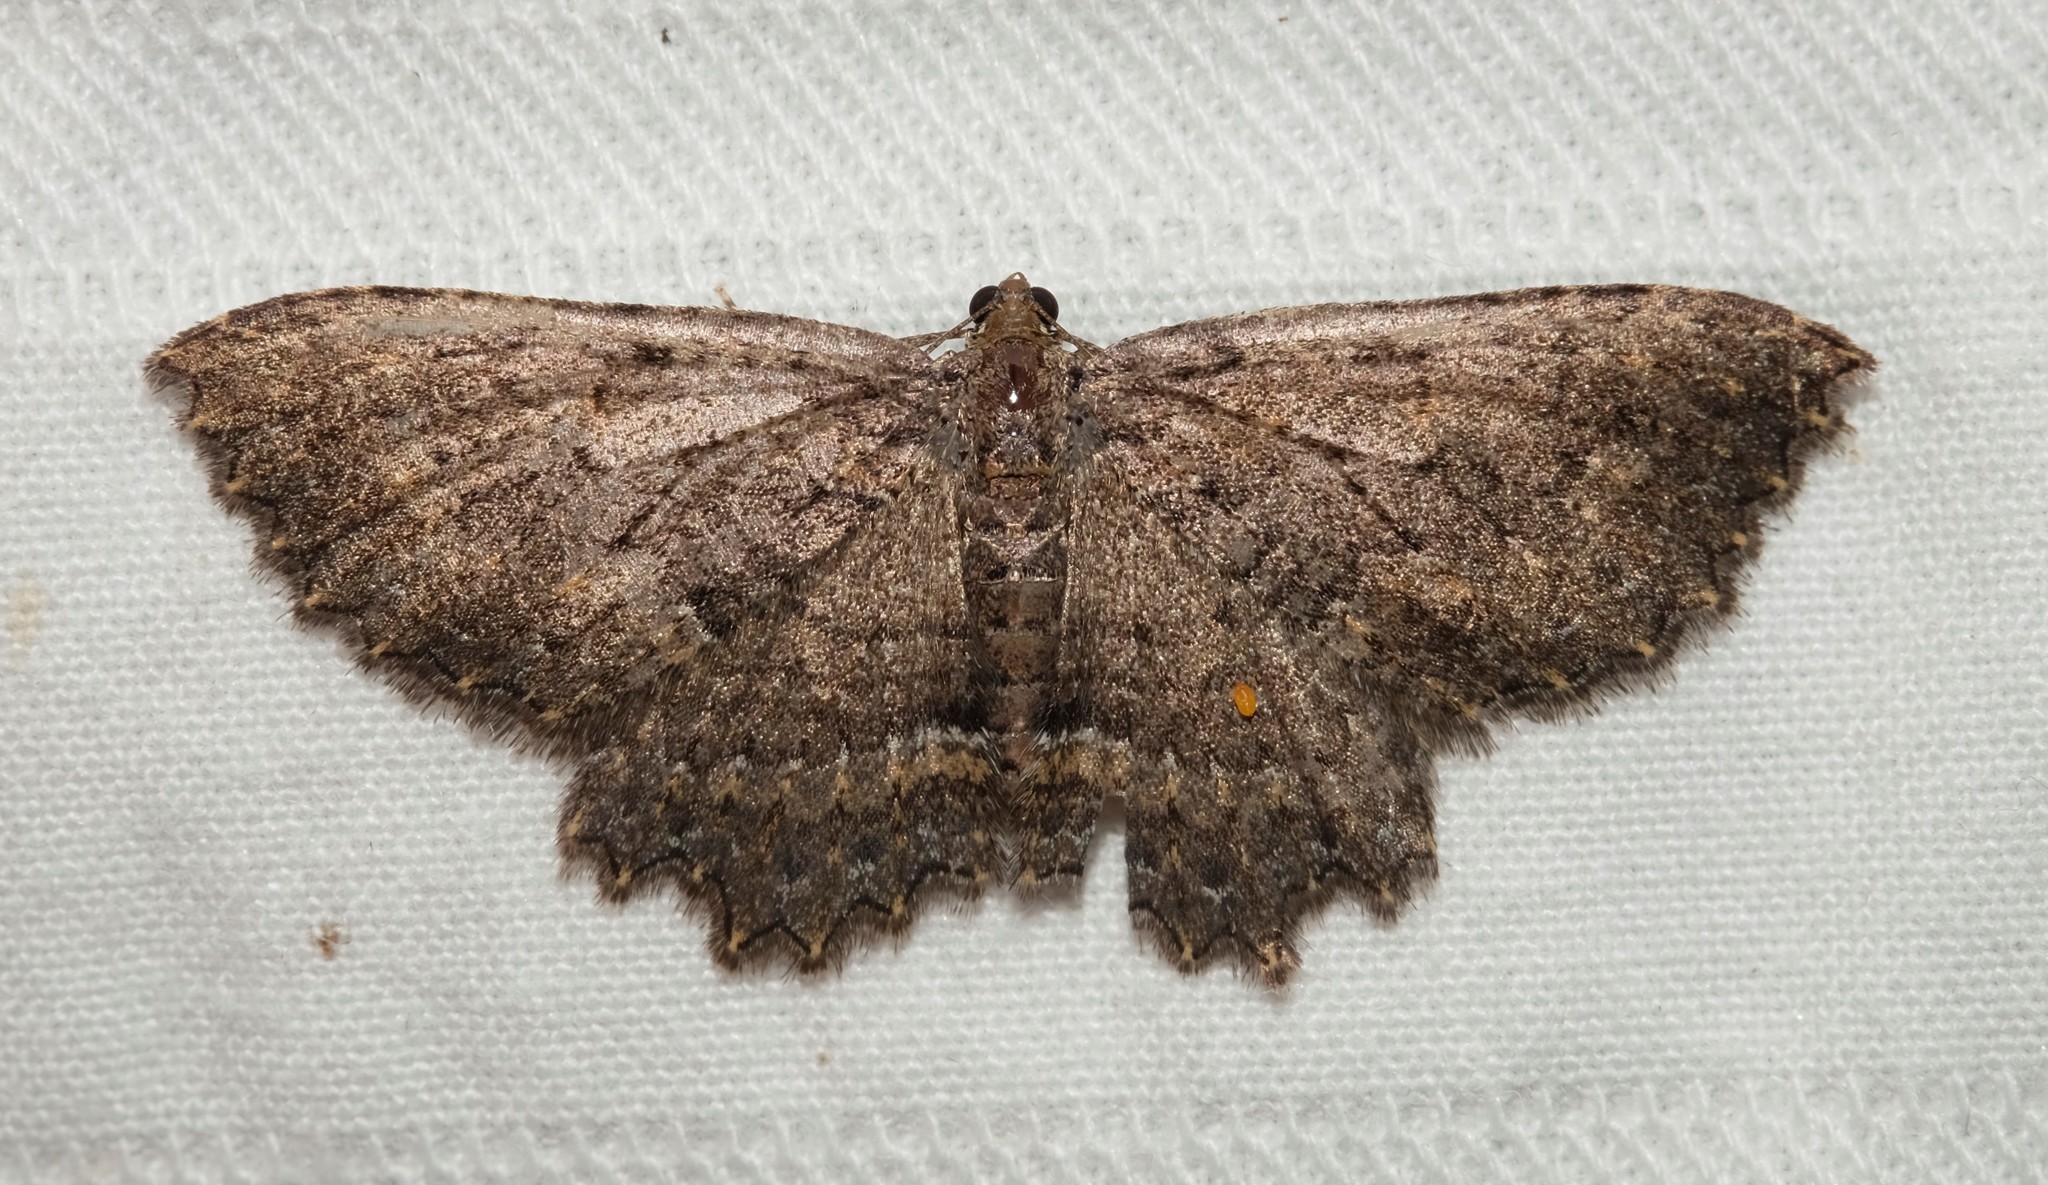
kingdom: Animalia
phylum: Arthropoda
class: Insecta
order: Lepidoptera
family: Geometridae
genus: Eccymatoge
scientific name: Eccymatoge morphna
